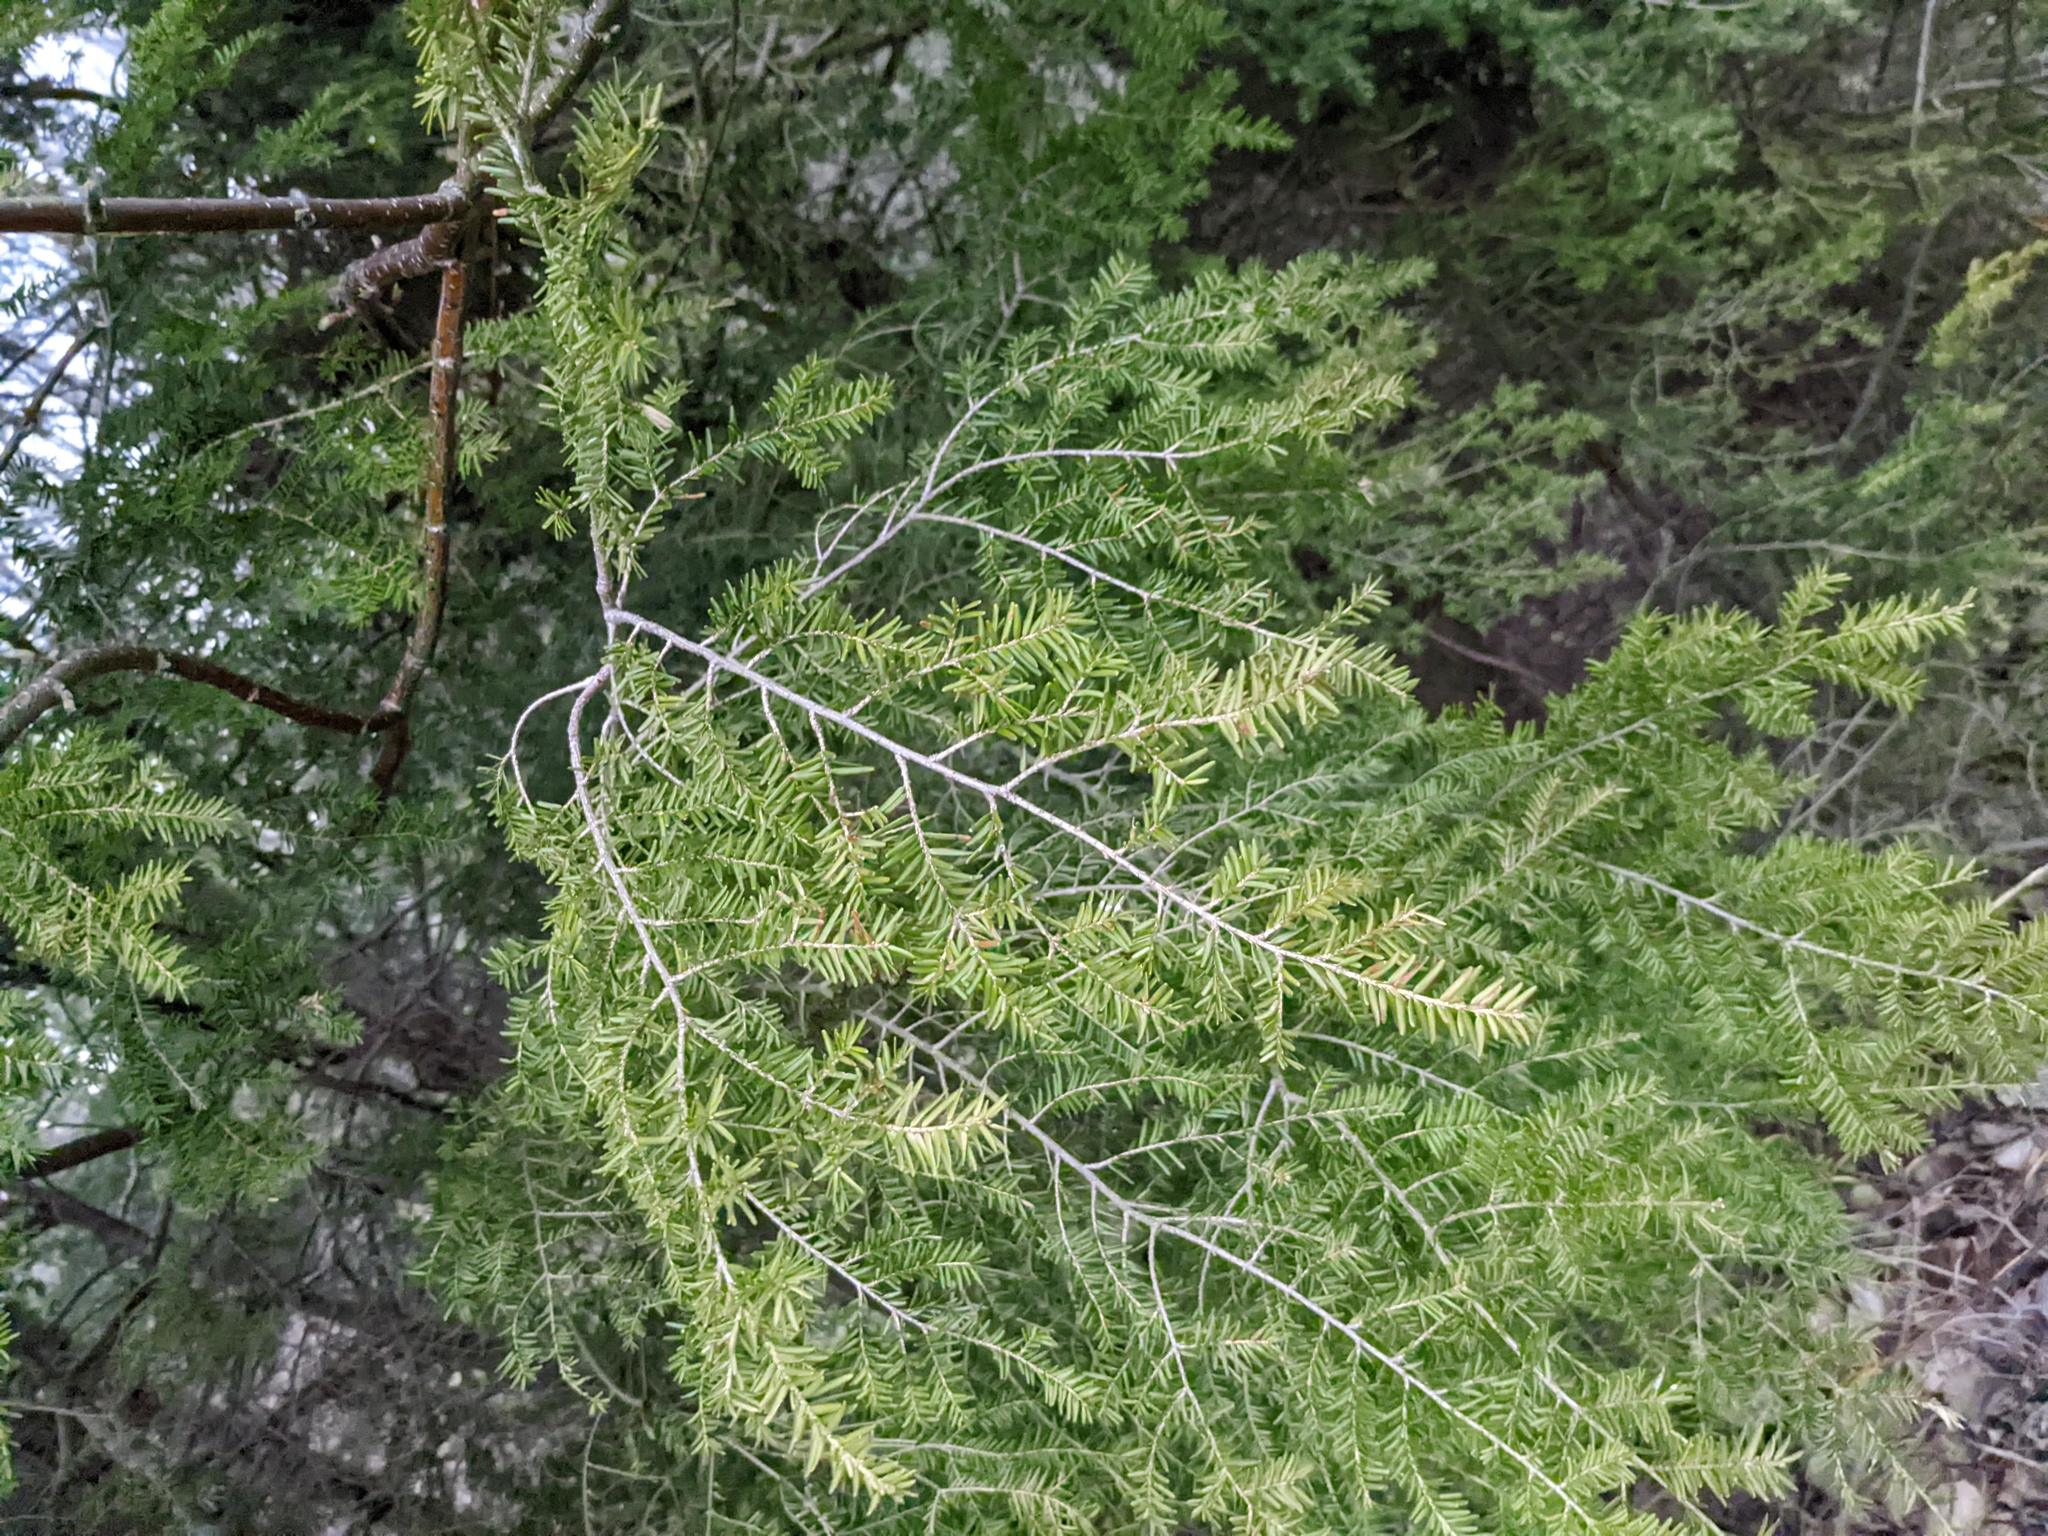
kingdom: Plantae
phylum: Tracheophyta
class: Pinopsida
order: Pinales
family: Pinaceae
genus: Tsuga
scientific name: Tsuga canadensis
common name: Eastern hemlock
